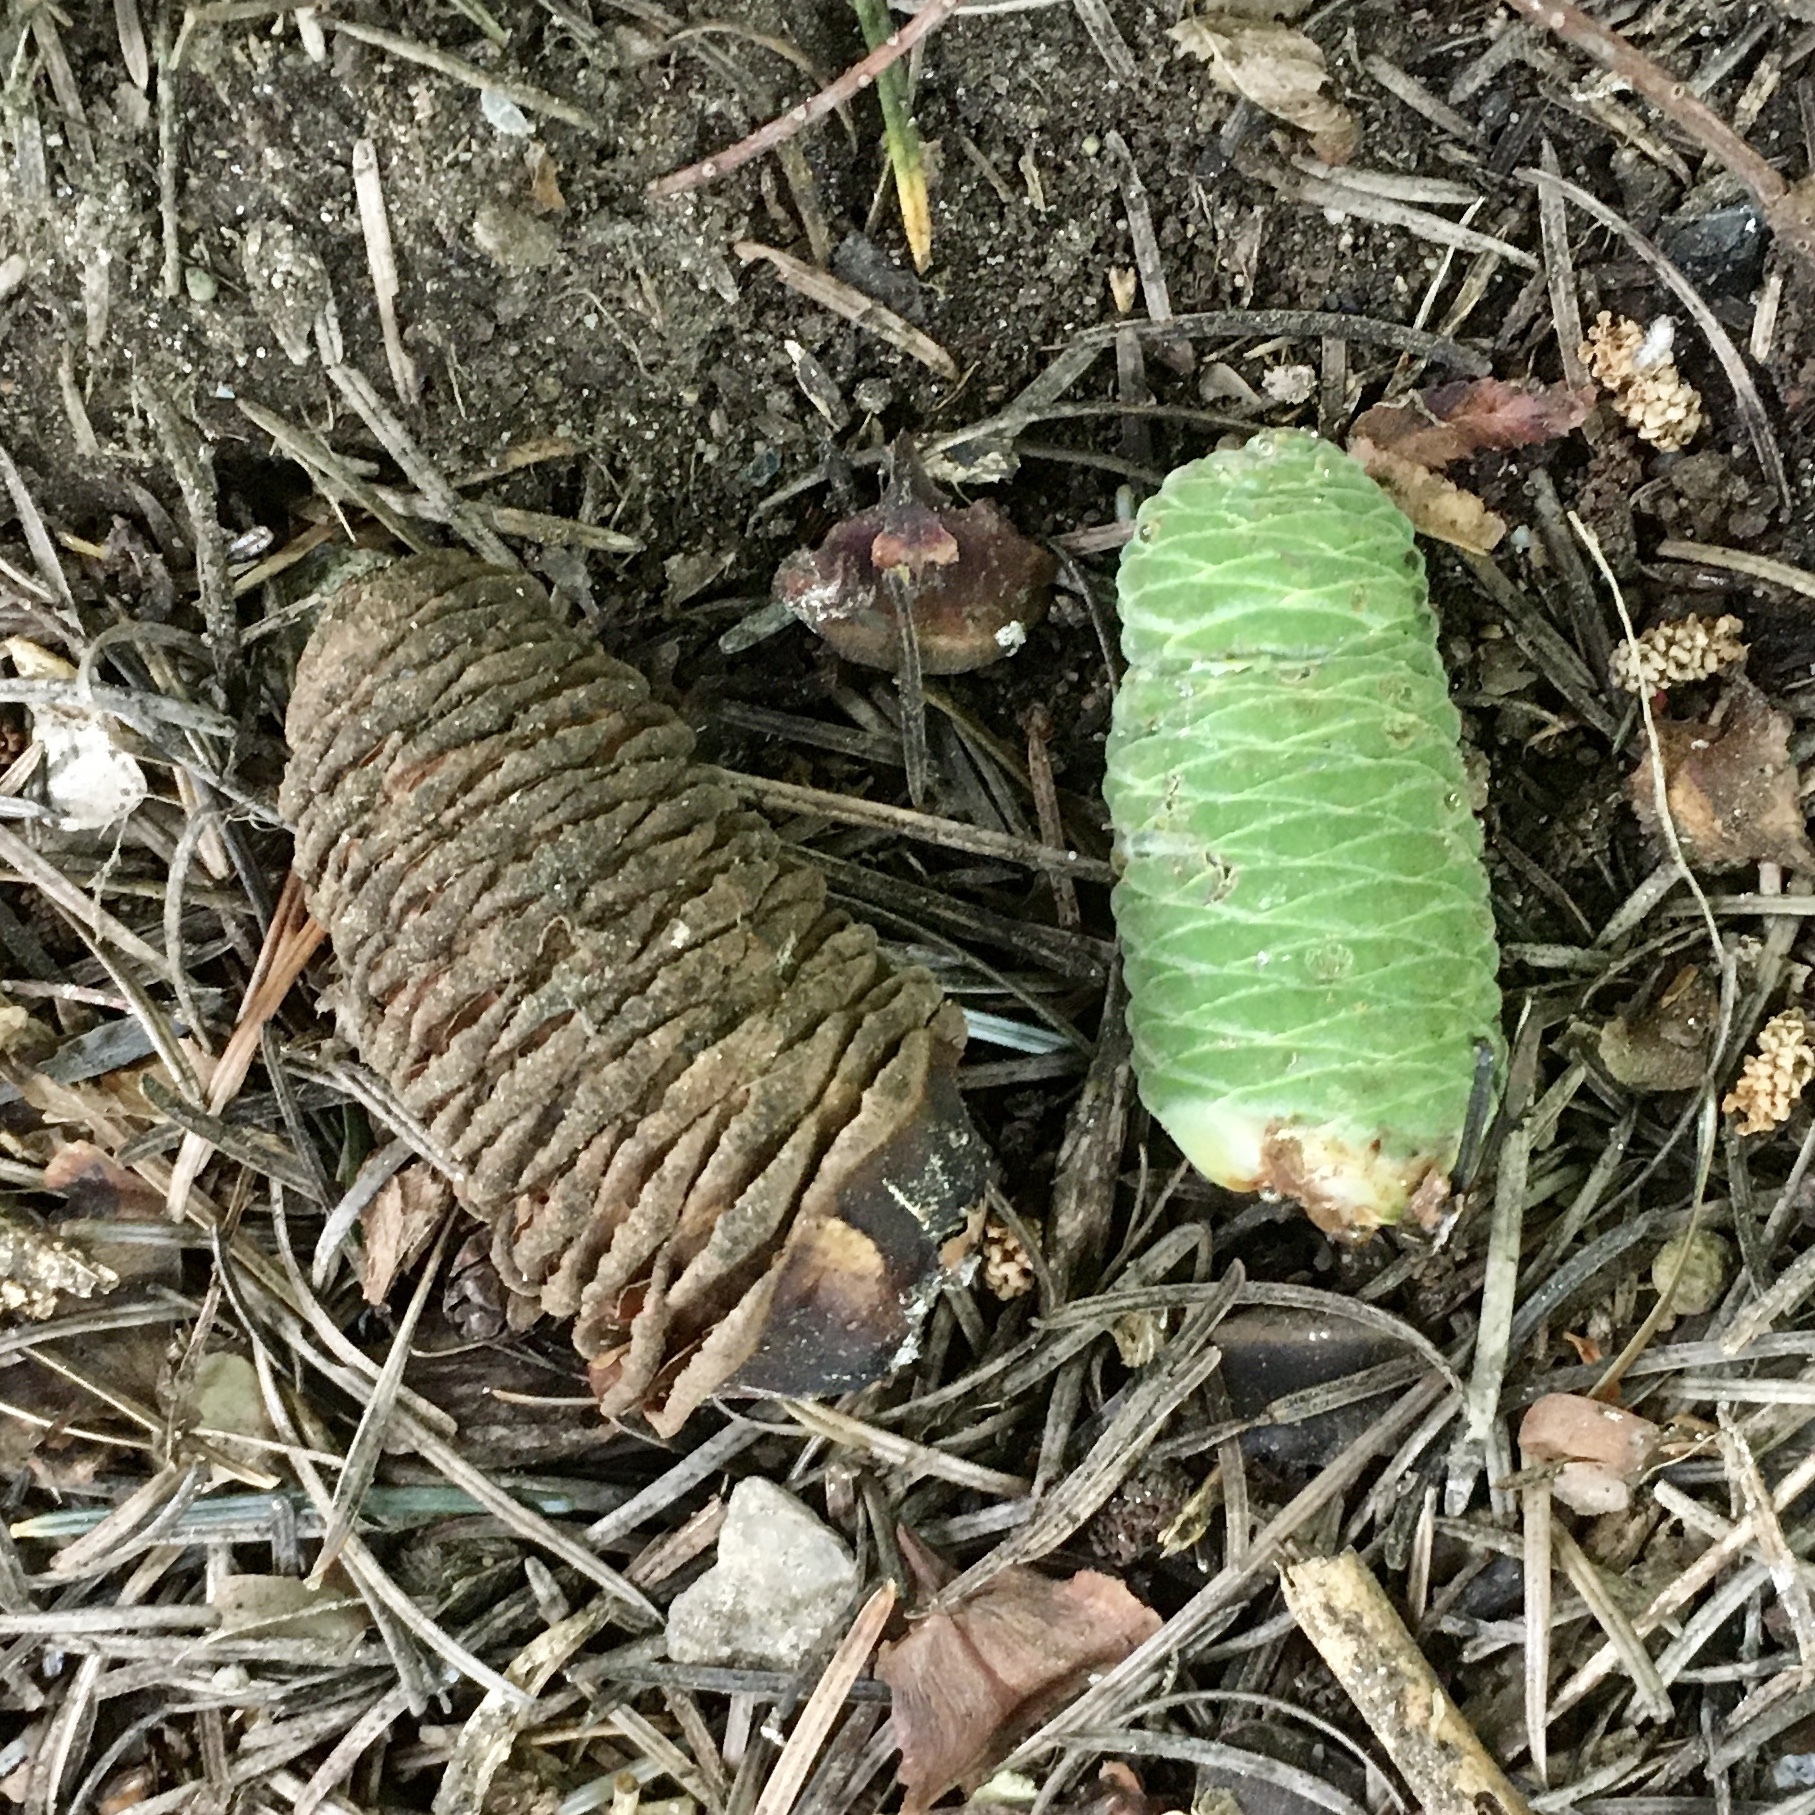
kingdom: Plantae
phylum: Tracheophyta
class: Pinopsida
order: Pinales
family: Pinaceae
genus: Abies
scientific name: Abies grandis
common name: Giant fir
